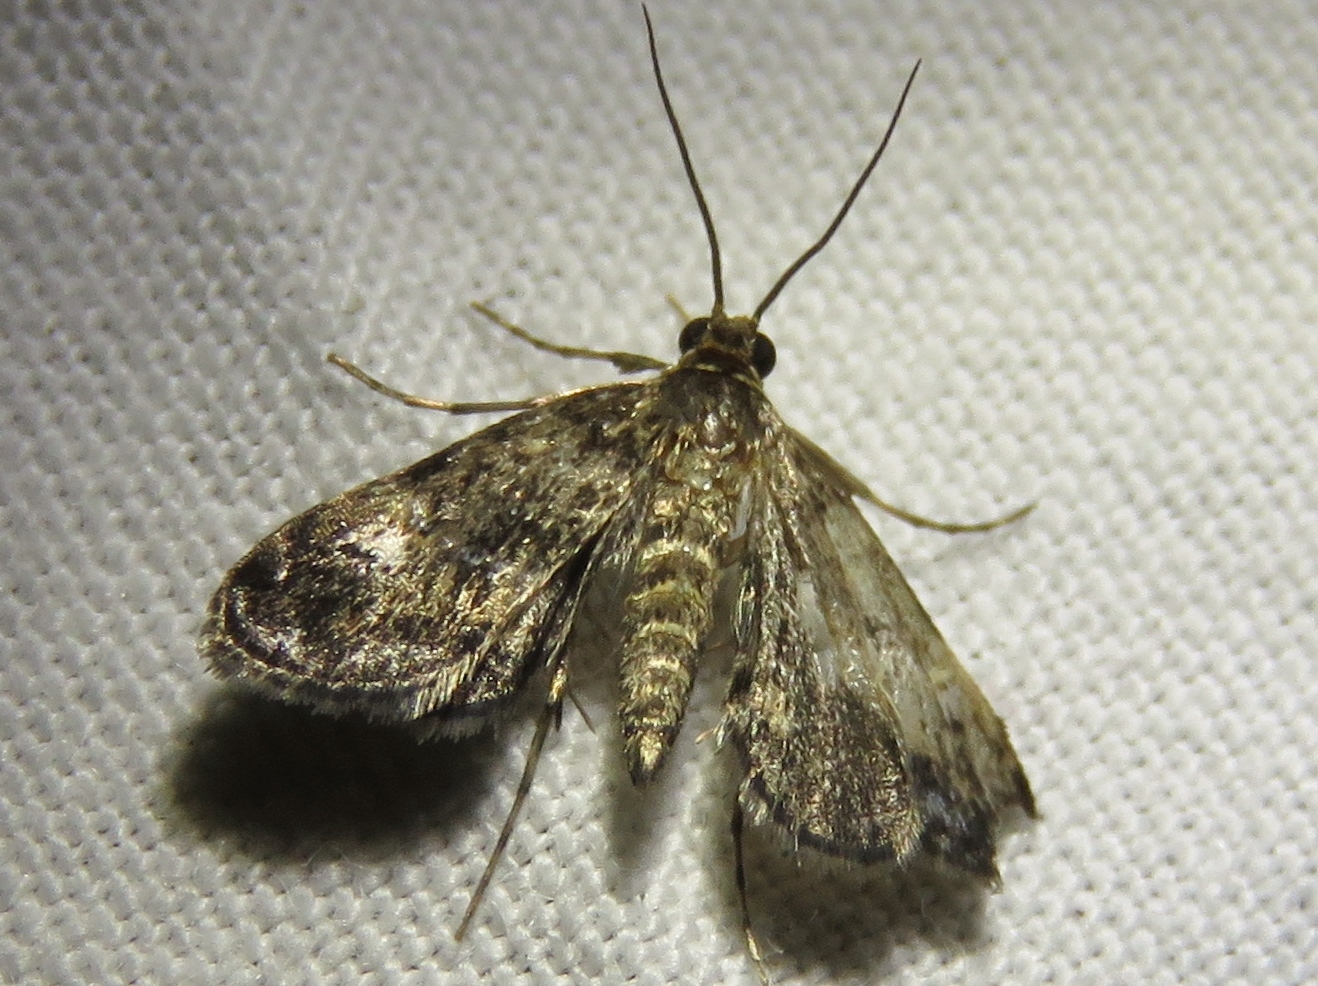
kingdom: Animalia
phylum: Arthropoda
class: Insecta
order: Lepidoptera
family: Crambidae
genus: Elophila
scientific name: Elophila tinealis
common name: Black duckweed moth
